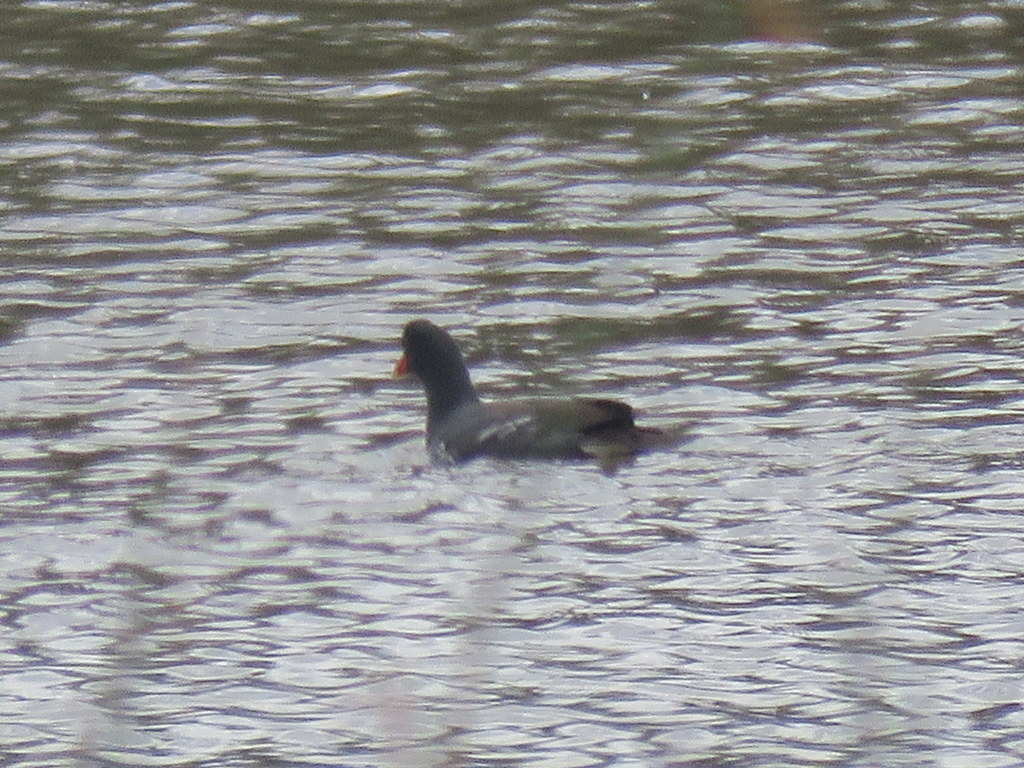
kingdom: Animalia
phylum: Chordata
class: Aves
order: Gruiformes
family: Rallidae
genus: Gallinula
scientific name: Gallinula chloropus
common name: Common moorhen
